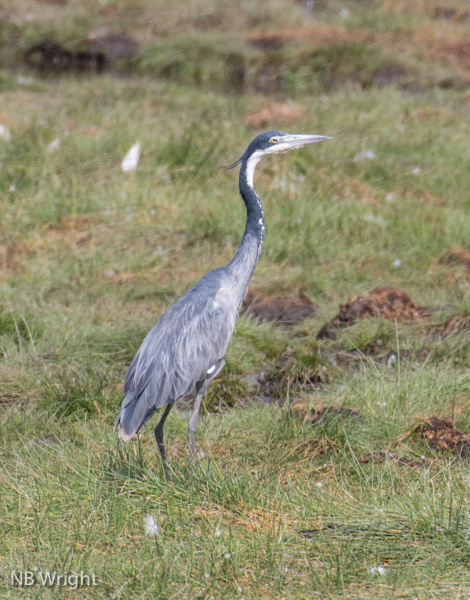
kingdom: Animalia
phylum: Chordata
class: Aves
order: Pelecaniformes
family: Ardeidae
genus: Ardea
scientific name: Ardea melanocephala
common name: Black-headed heron
